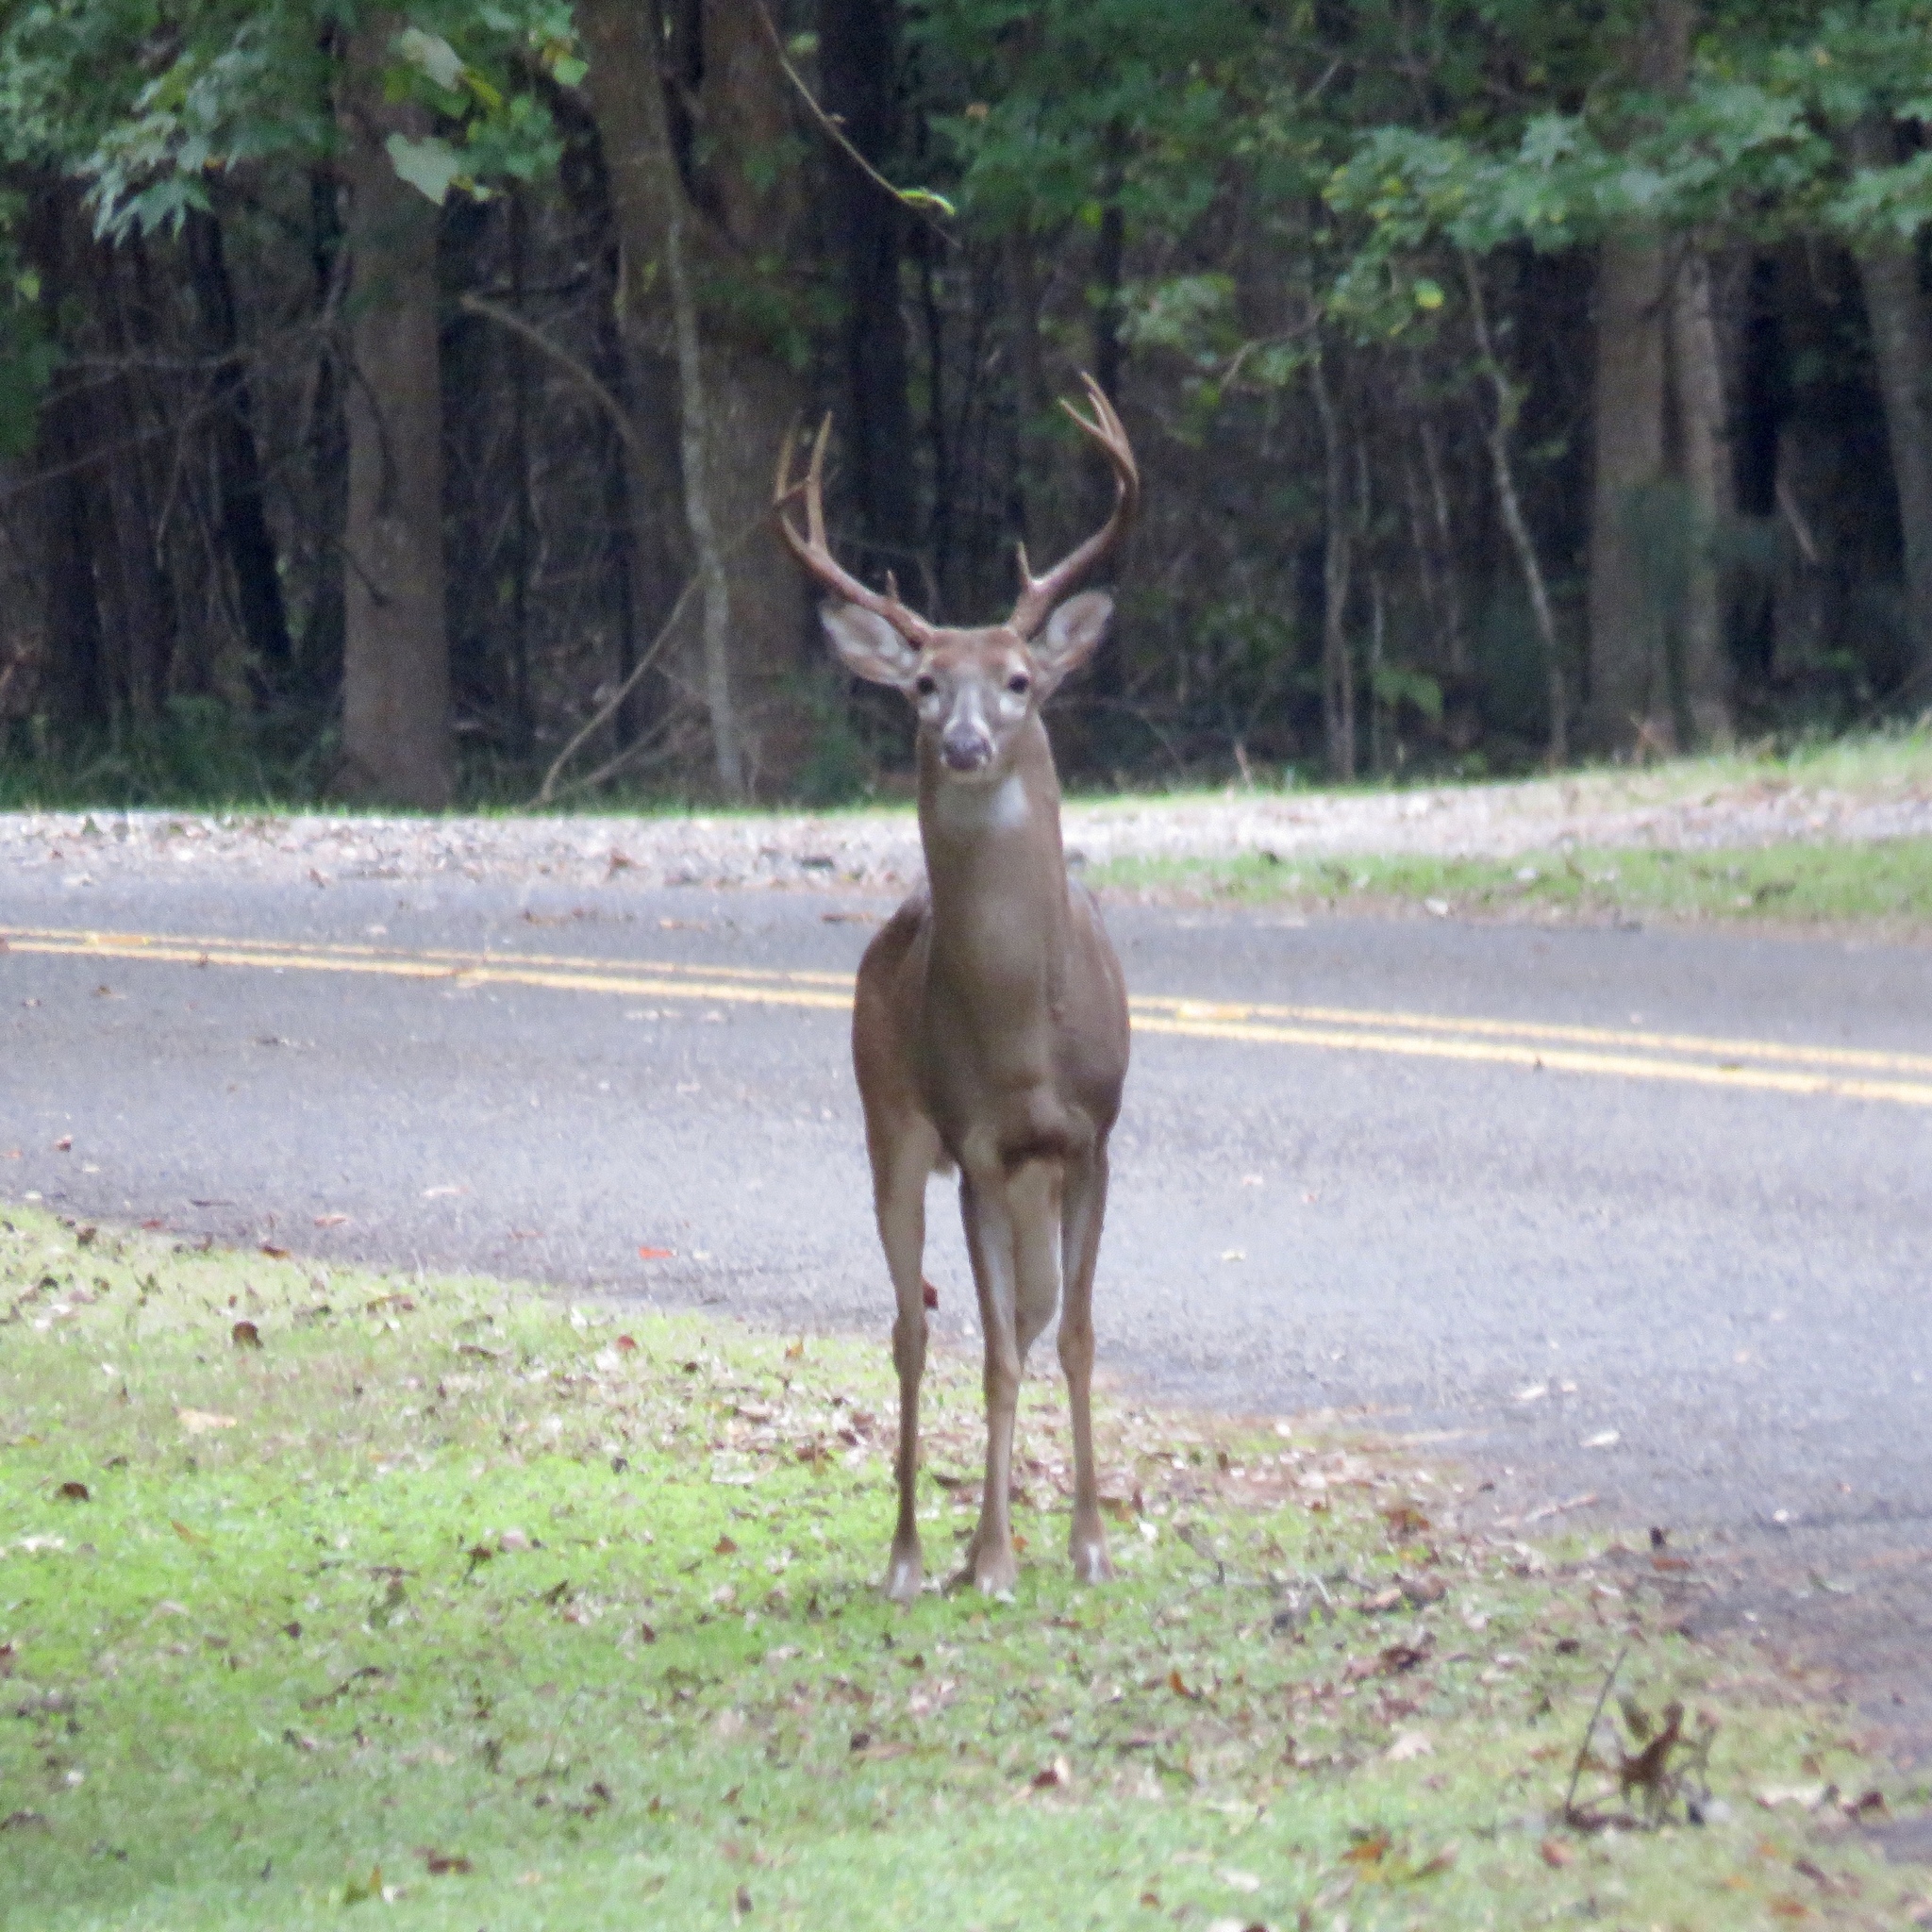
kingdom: Animalia
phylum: Chordata
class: Mammalia
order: Artiodactyla
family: Cervidae
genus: Odocoileus
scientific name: Odocoileus virginianus
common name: White-tailed deer
